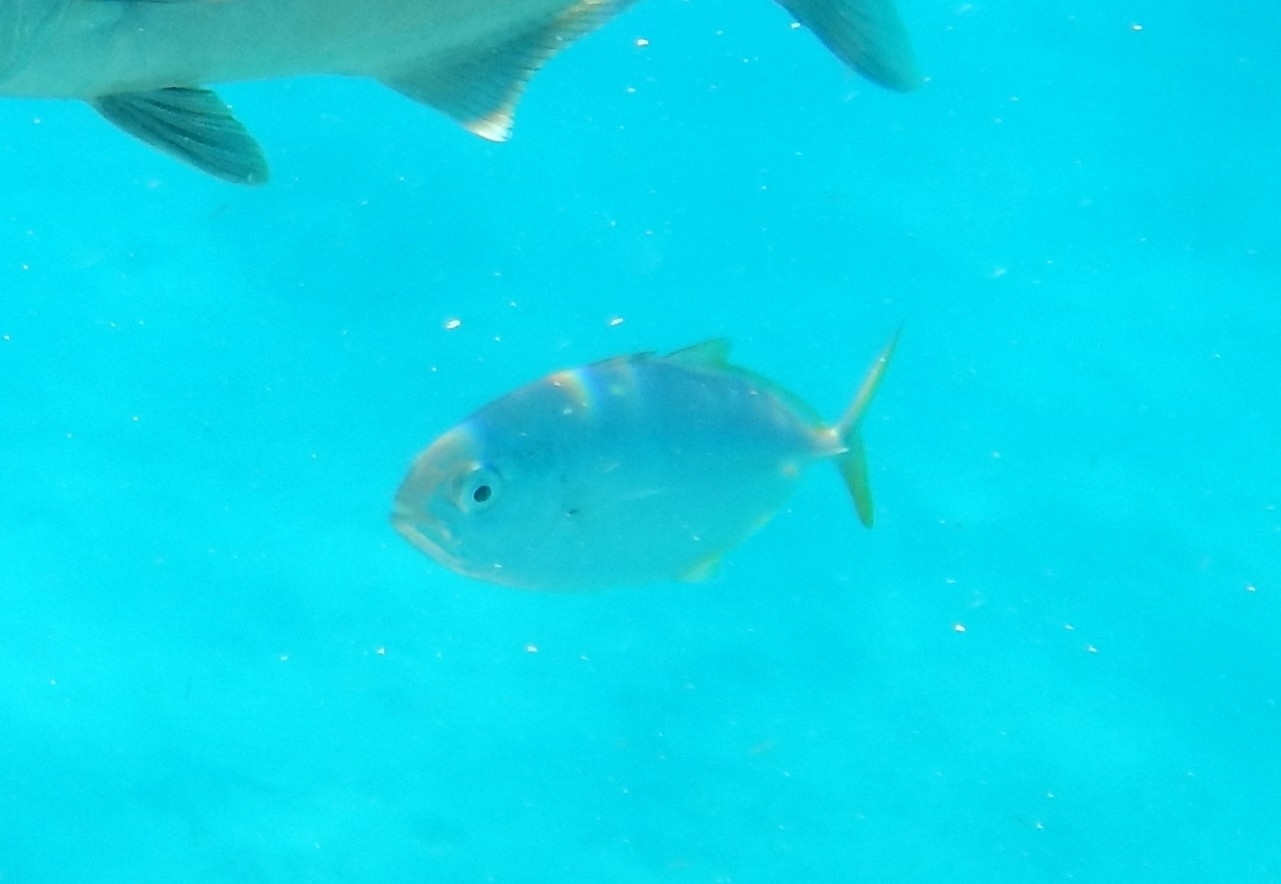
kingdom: Animalia
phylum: Chordata
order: Perciformes
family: Carangidae
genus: Carangoides
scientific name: Carangoides bartholomaei
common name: Yellow jack
